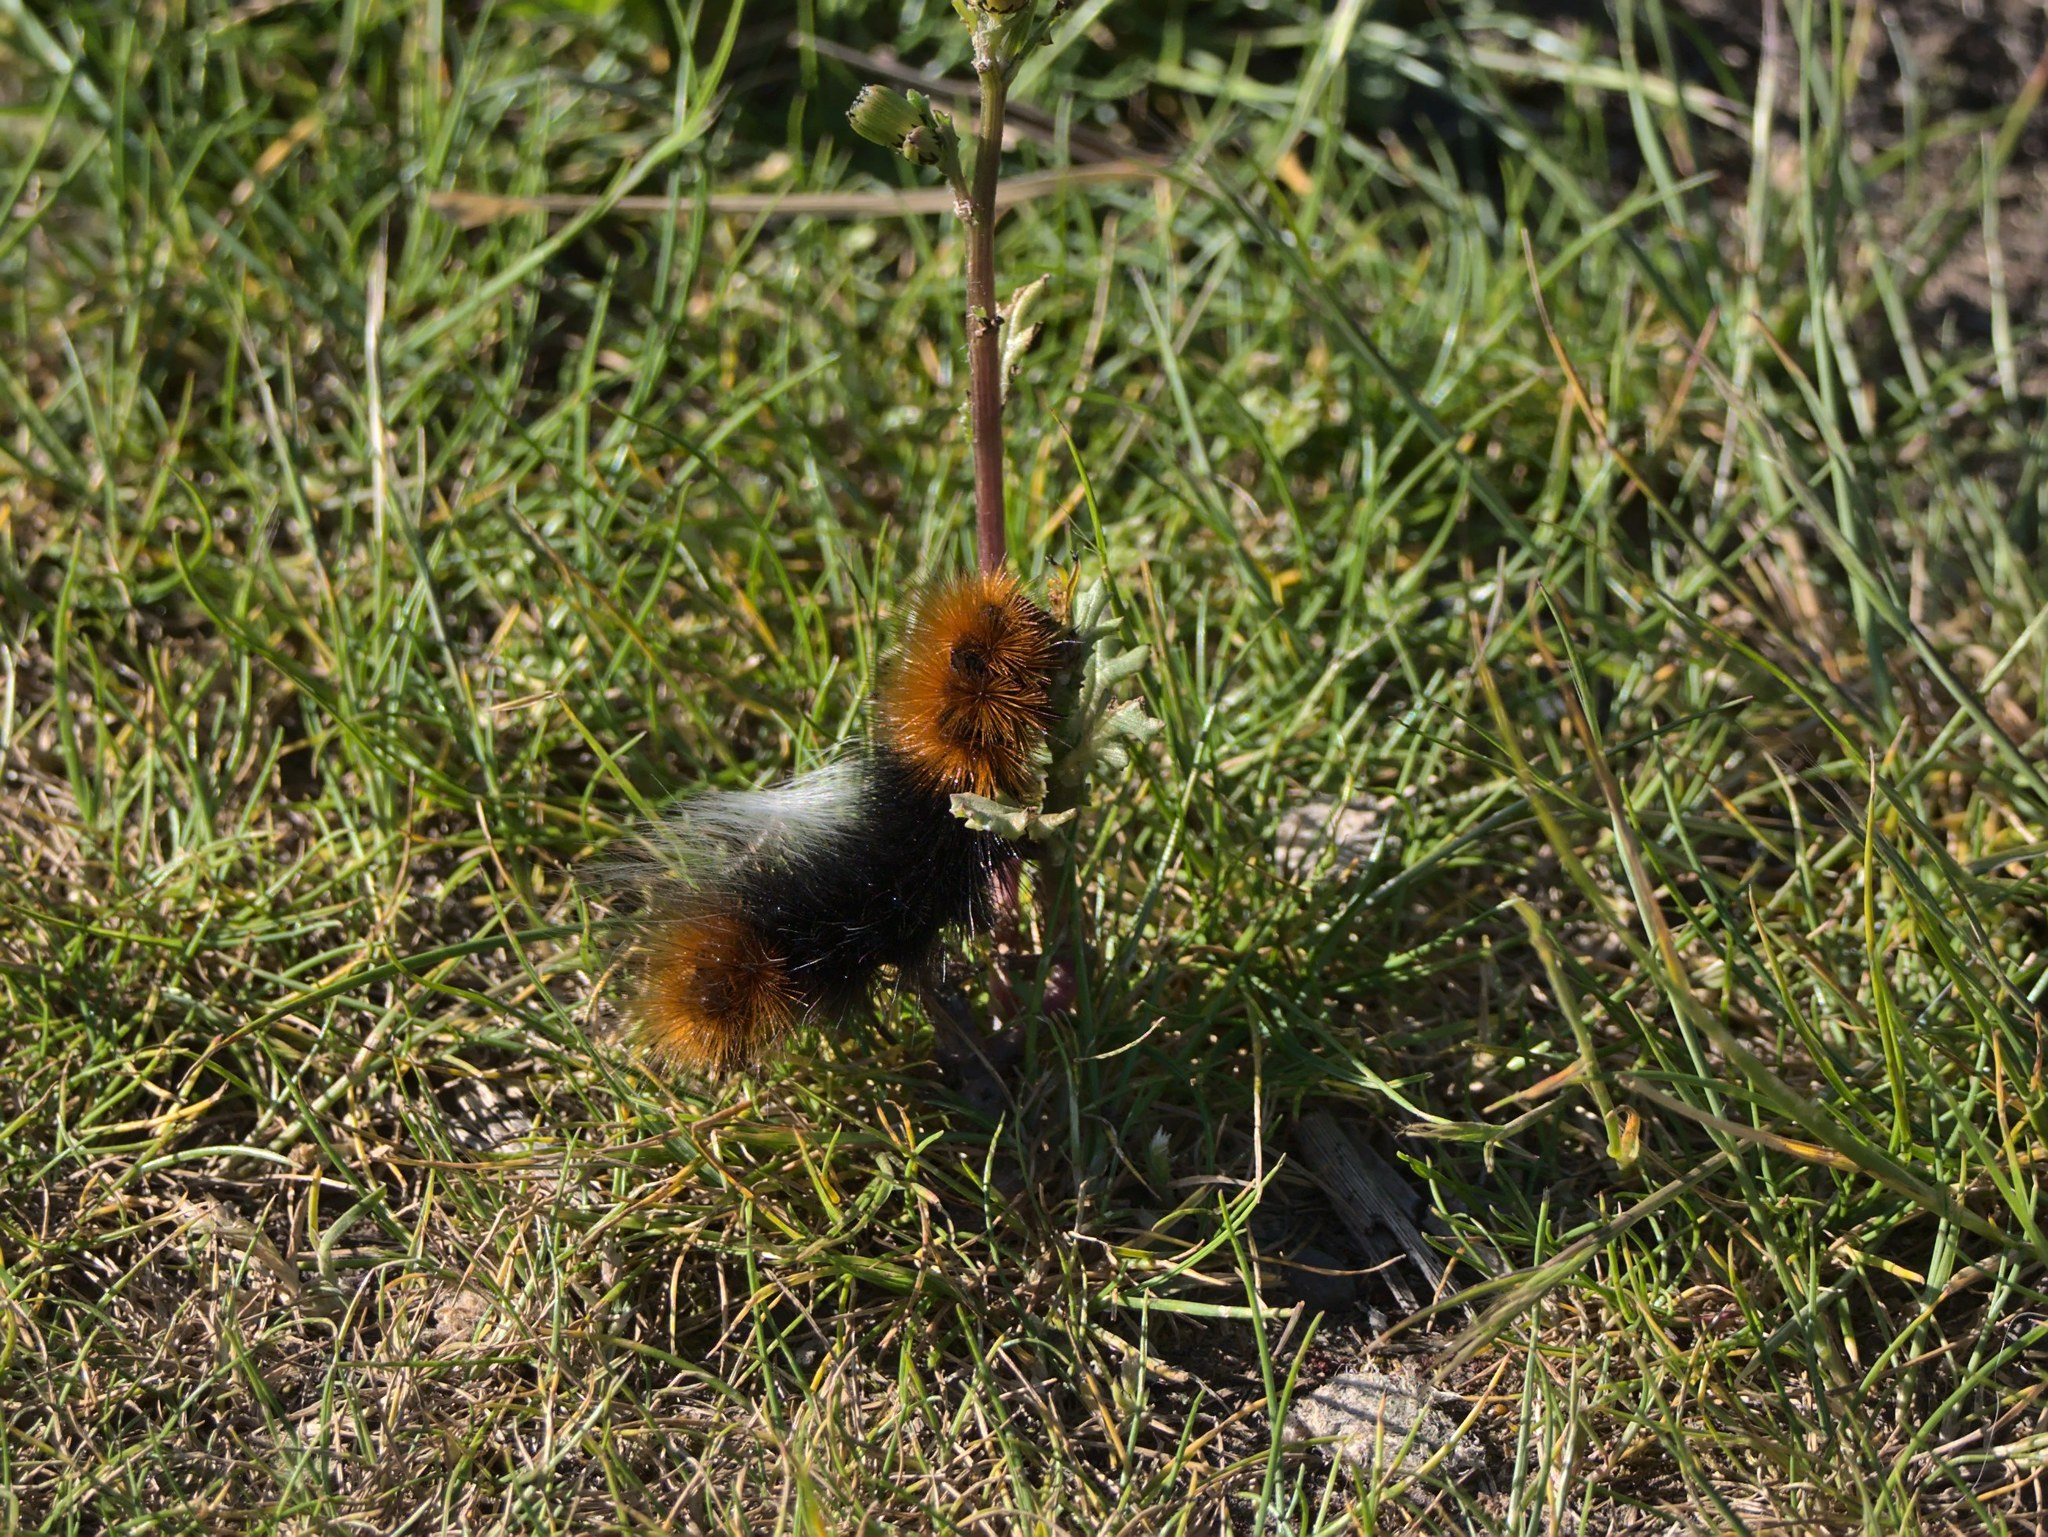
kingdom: Animalia
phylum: Arthropoda
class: Insecta
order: Lepidoptera
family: Erebidae
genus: Arctia
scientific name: Arctia tigrina
